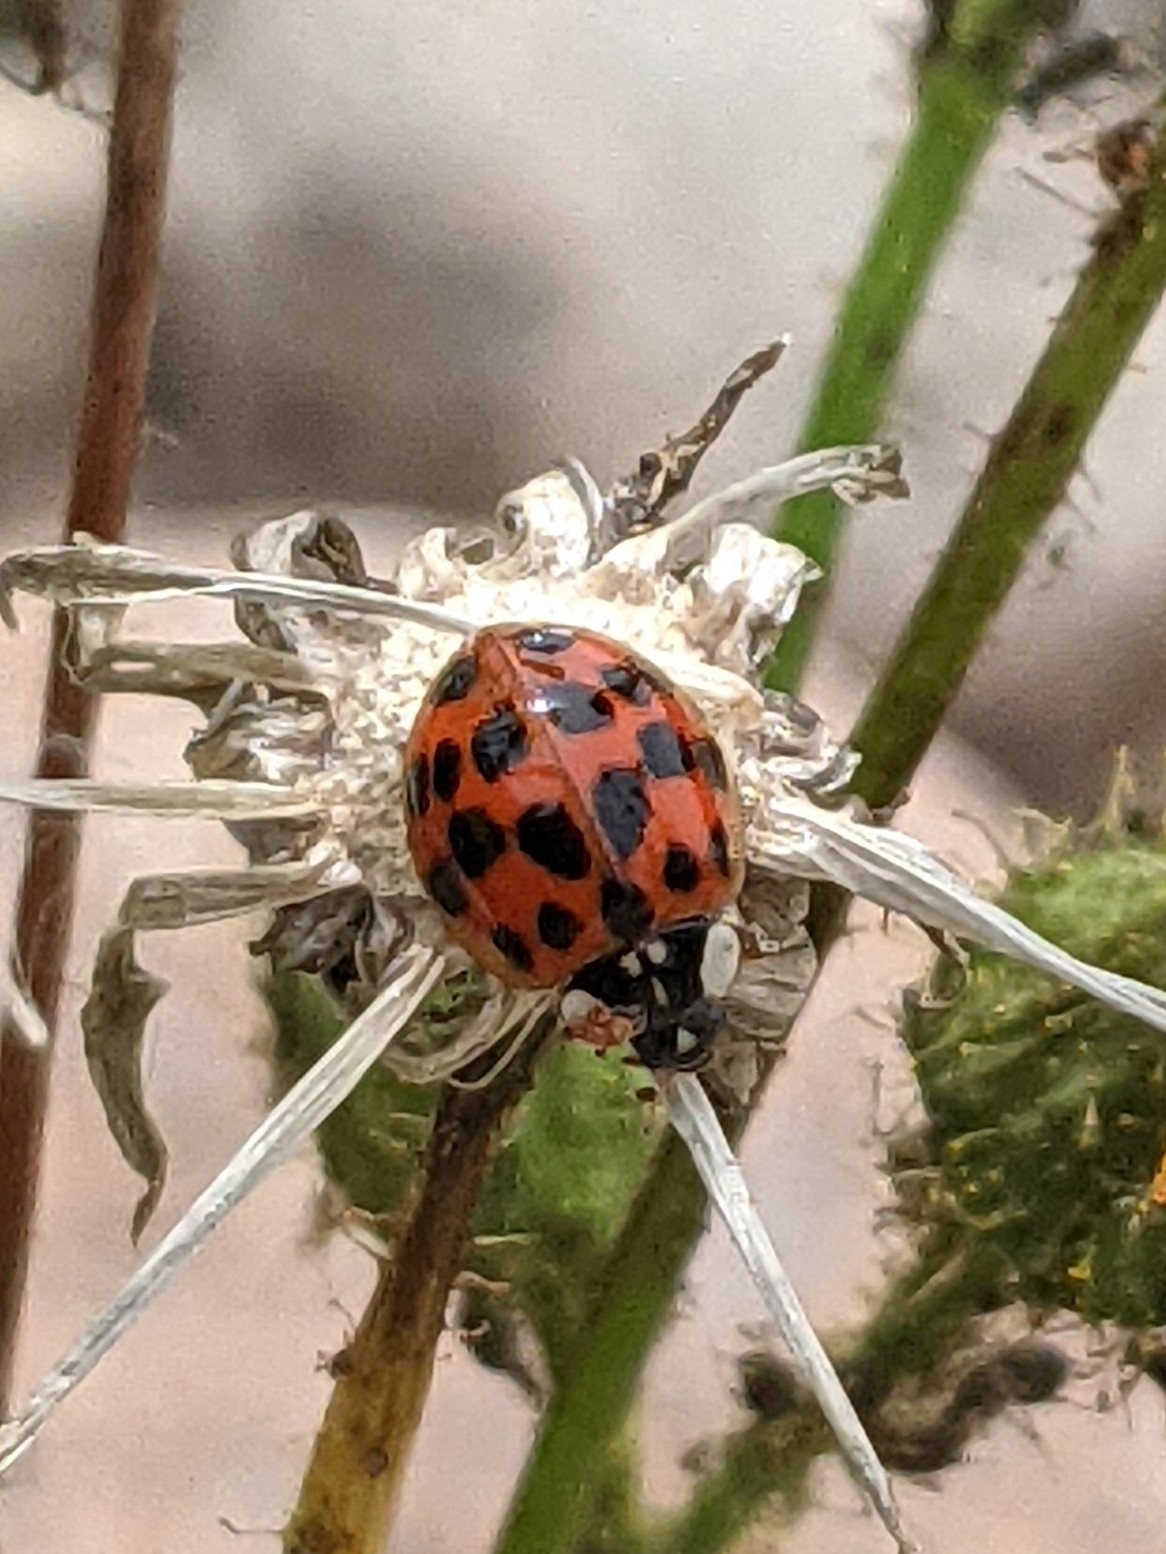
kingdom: Animalia
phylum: Arthropoda
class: Insecta
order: Coleoptera
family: Coccinellidae
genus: Harmonia
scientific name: Harmonia axyridis
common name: Harlequin ladybird
